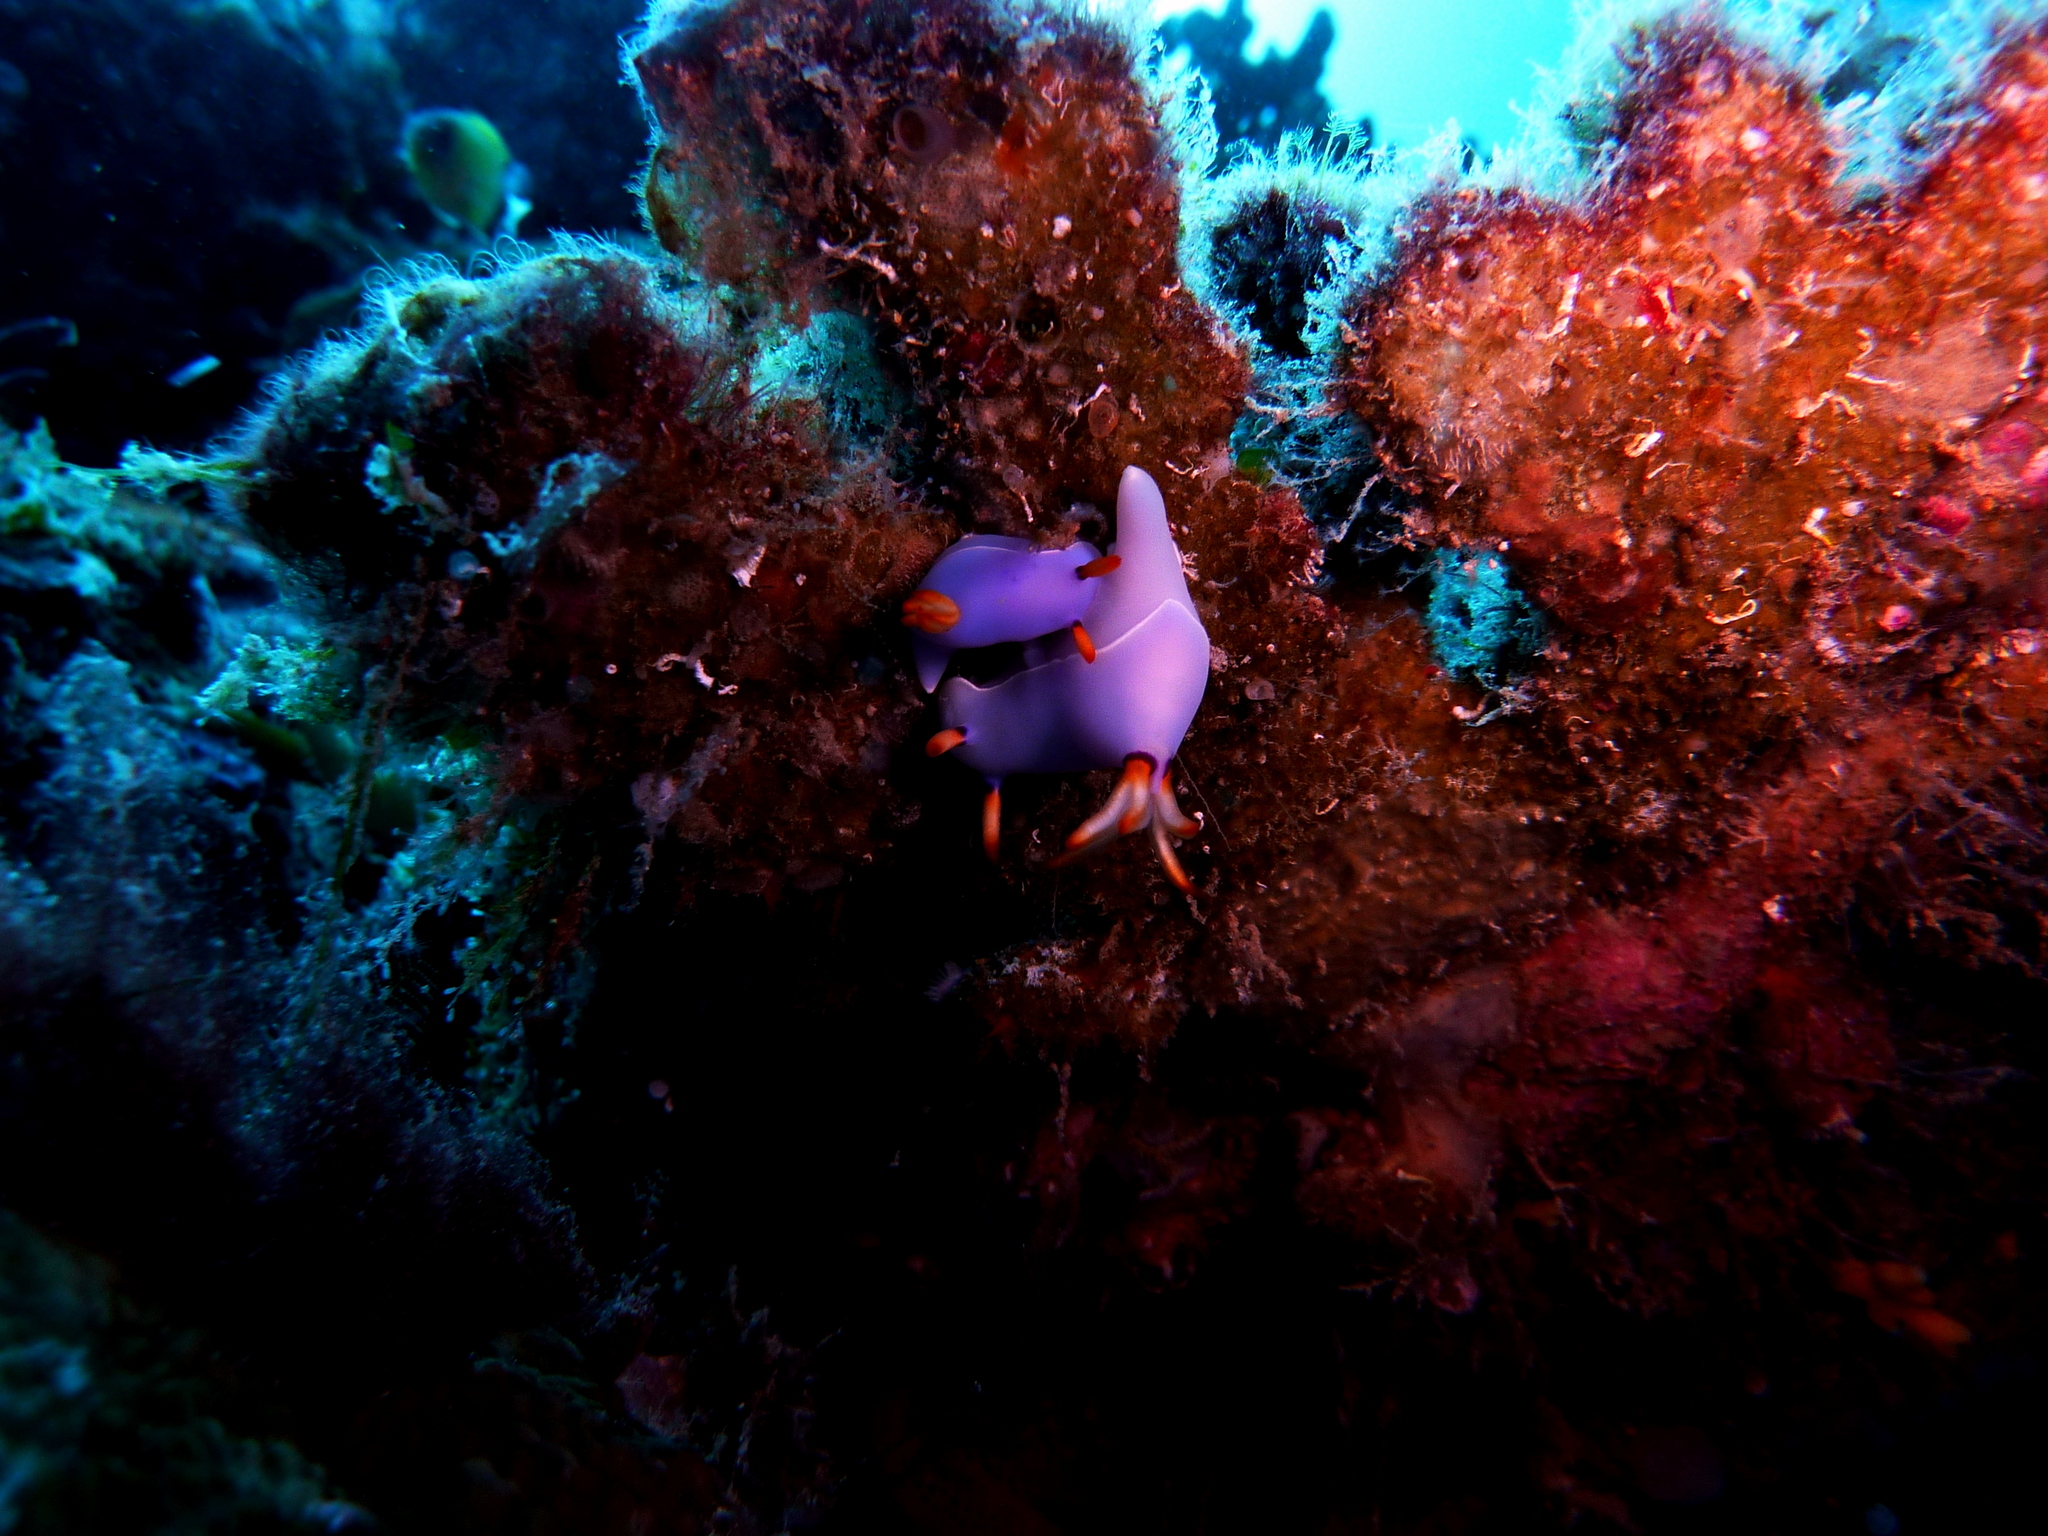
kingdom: Animalia
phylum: Mollusca
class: Gastropoda
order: Nudibranchia
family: Chromodorididae
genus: Hypselodoris
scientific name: Hypselodoris bullockii
